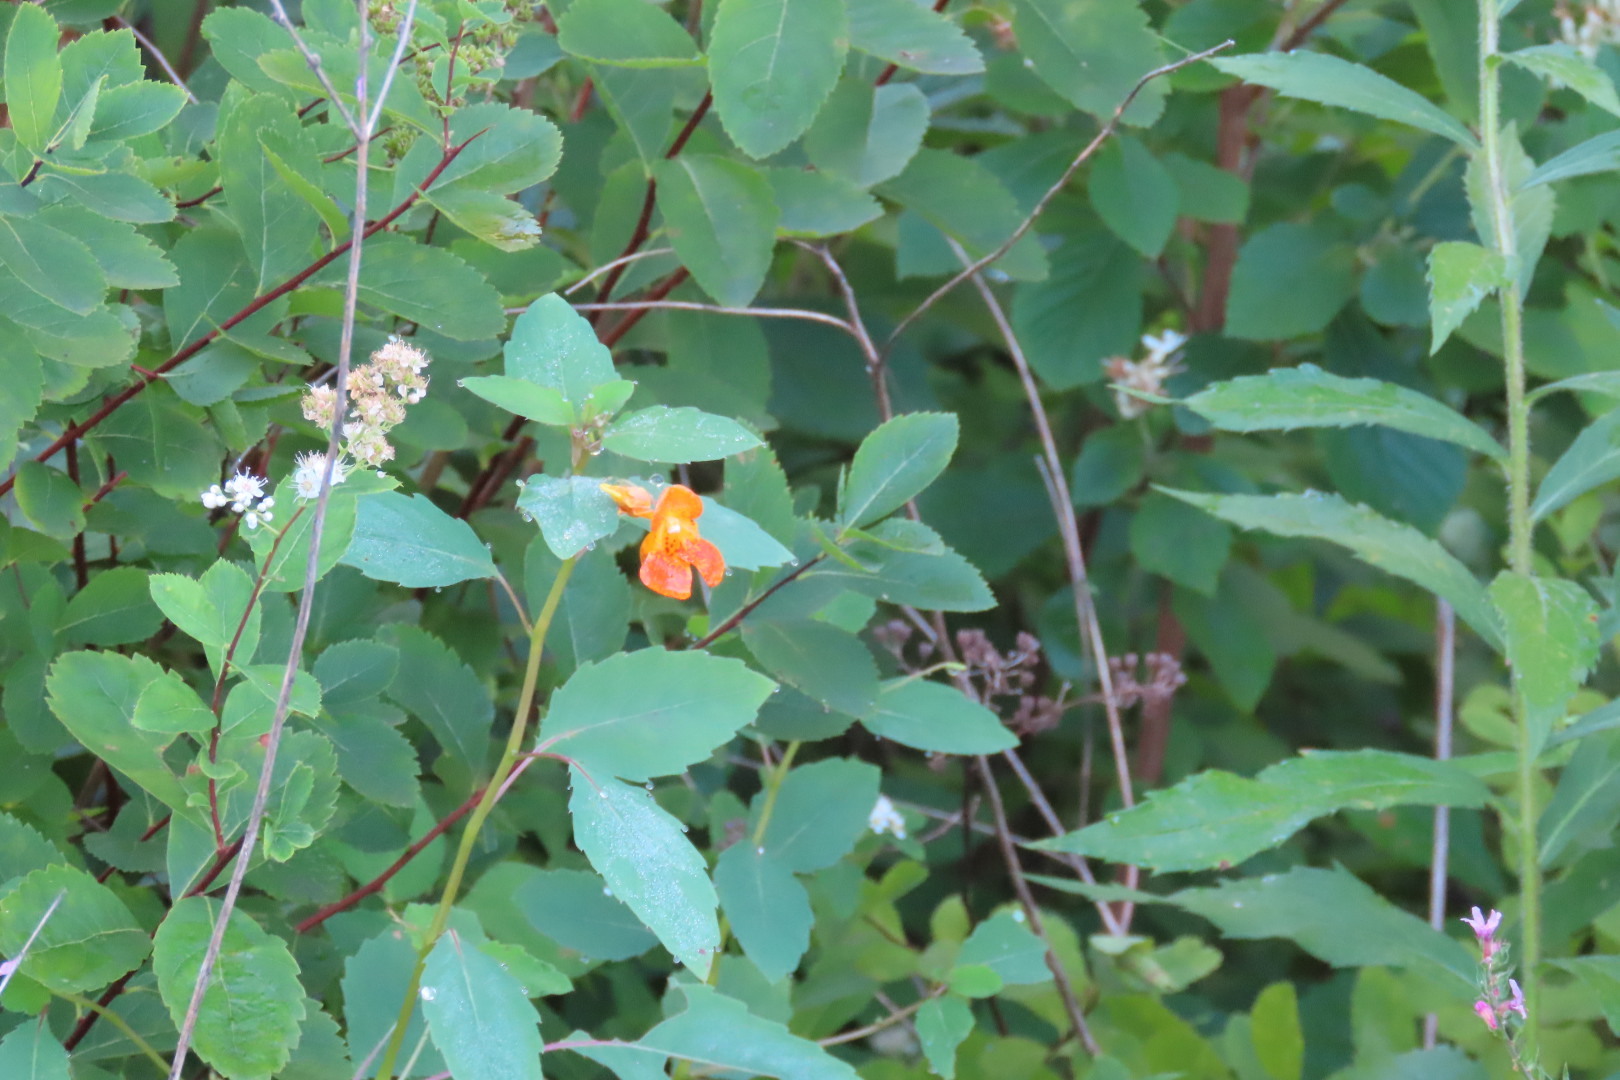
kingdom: Plantae
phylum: Tracheophyta
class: Magnoliopsida
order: Ericales
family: Balsaminaceae
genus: Impatiens
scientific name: Impatiens capensis
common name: Orange balsam
